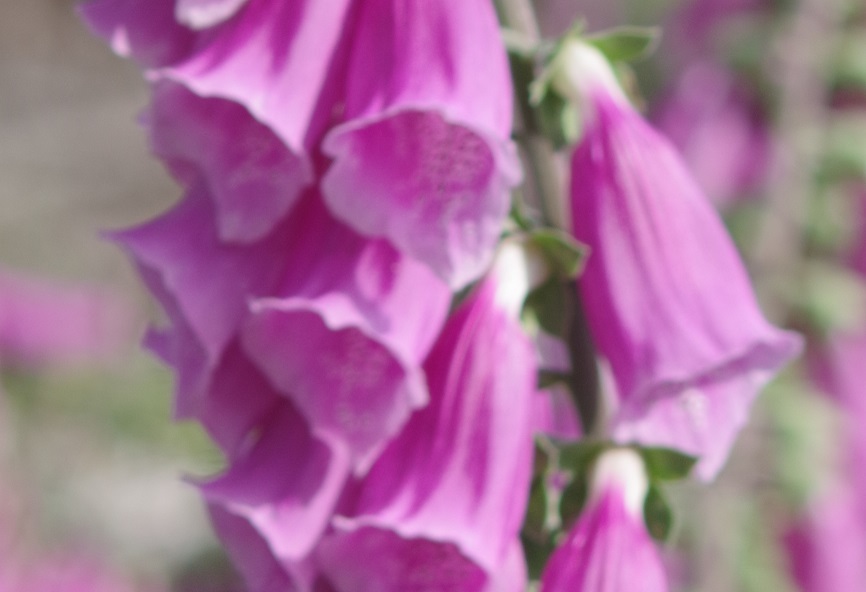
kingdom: Plantae
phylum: Tracheophyta
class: Magnoliopsida
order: Lamiales
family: Plantaginaceae
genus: Digitalis
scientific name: Digitalis purpurea
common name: Foxglove
